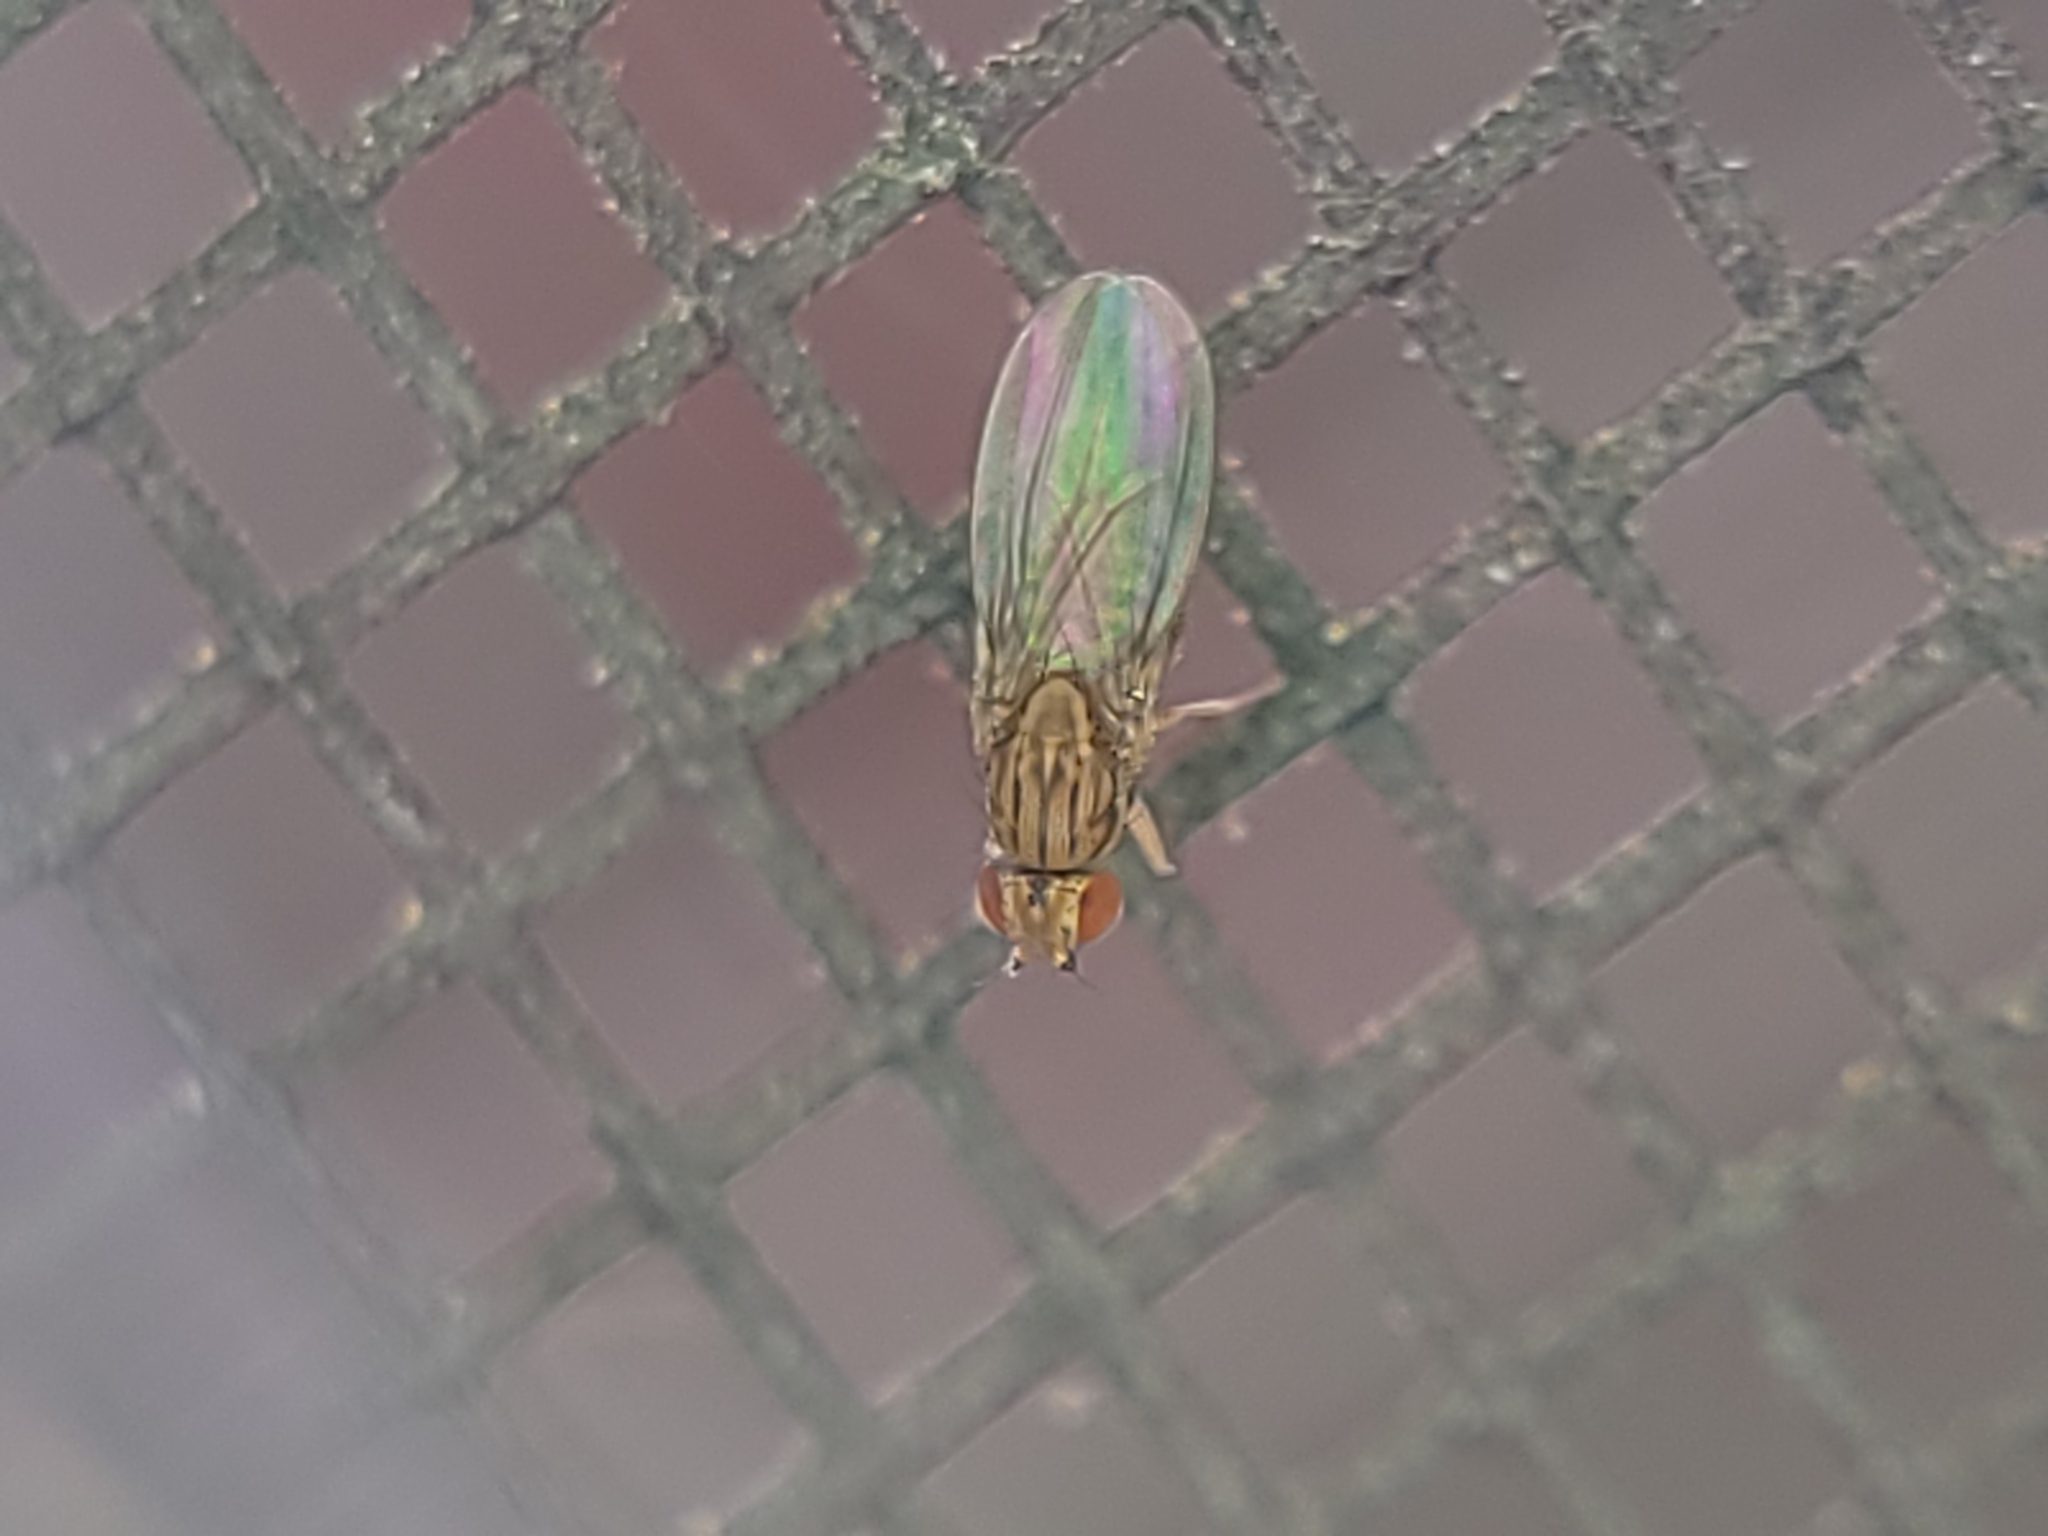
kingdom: Animalia
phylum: Arthropoda
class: Insecta
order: Diptera
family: Drosophilidae
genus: Drosophila
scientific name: Drosophila busckii
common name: Pomace fly
